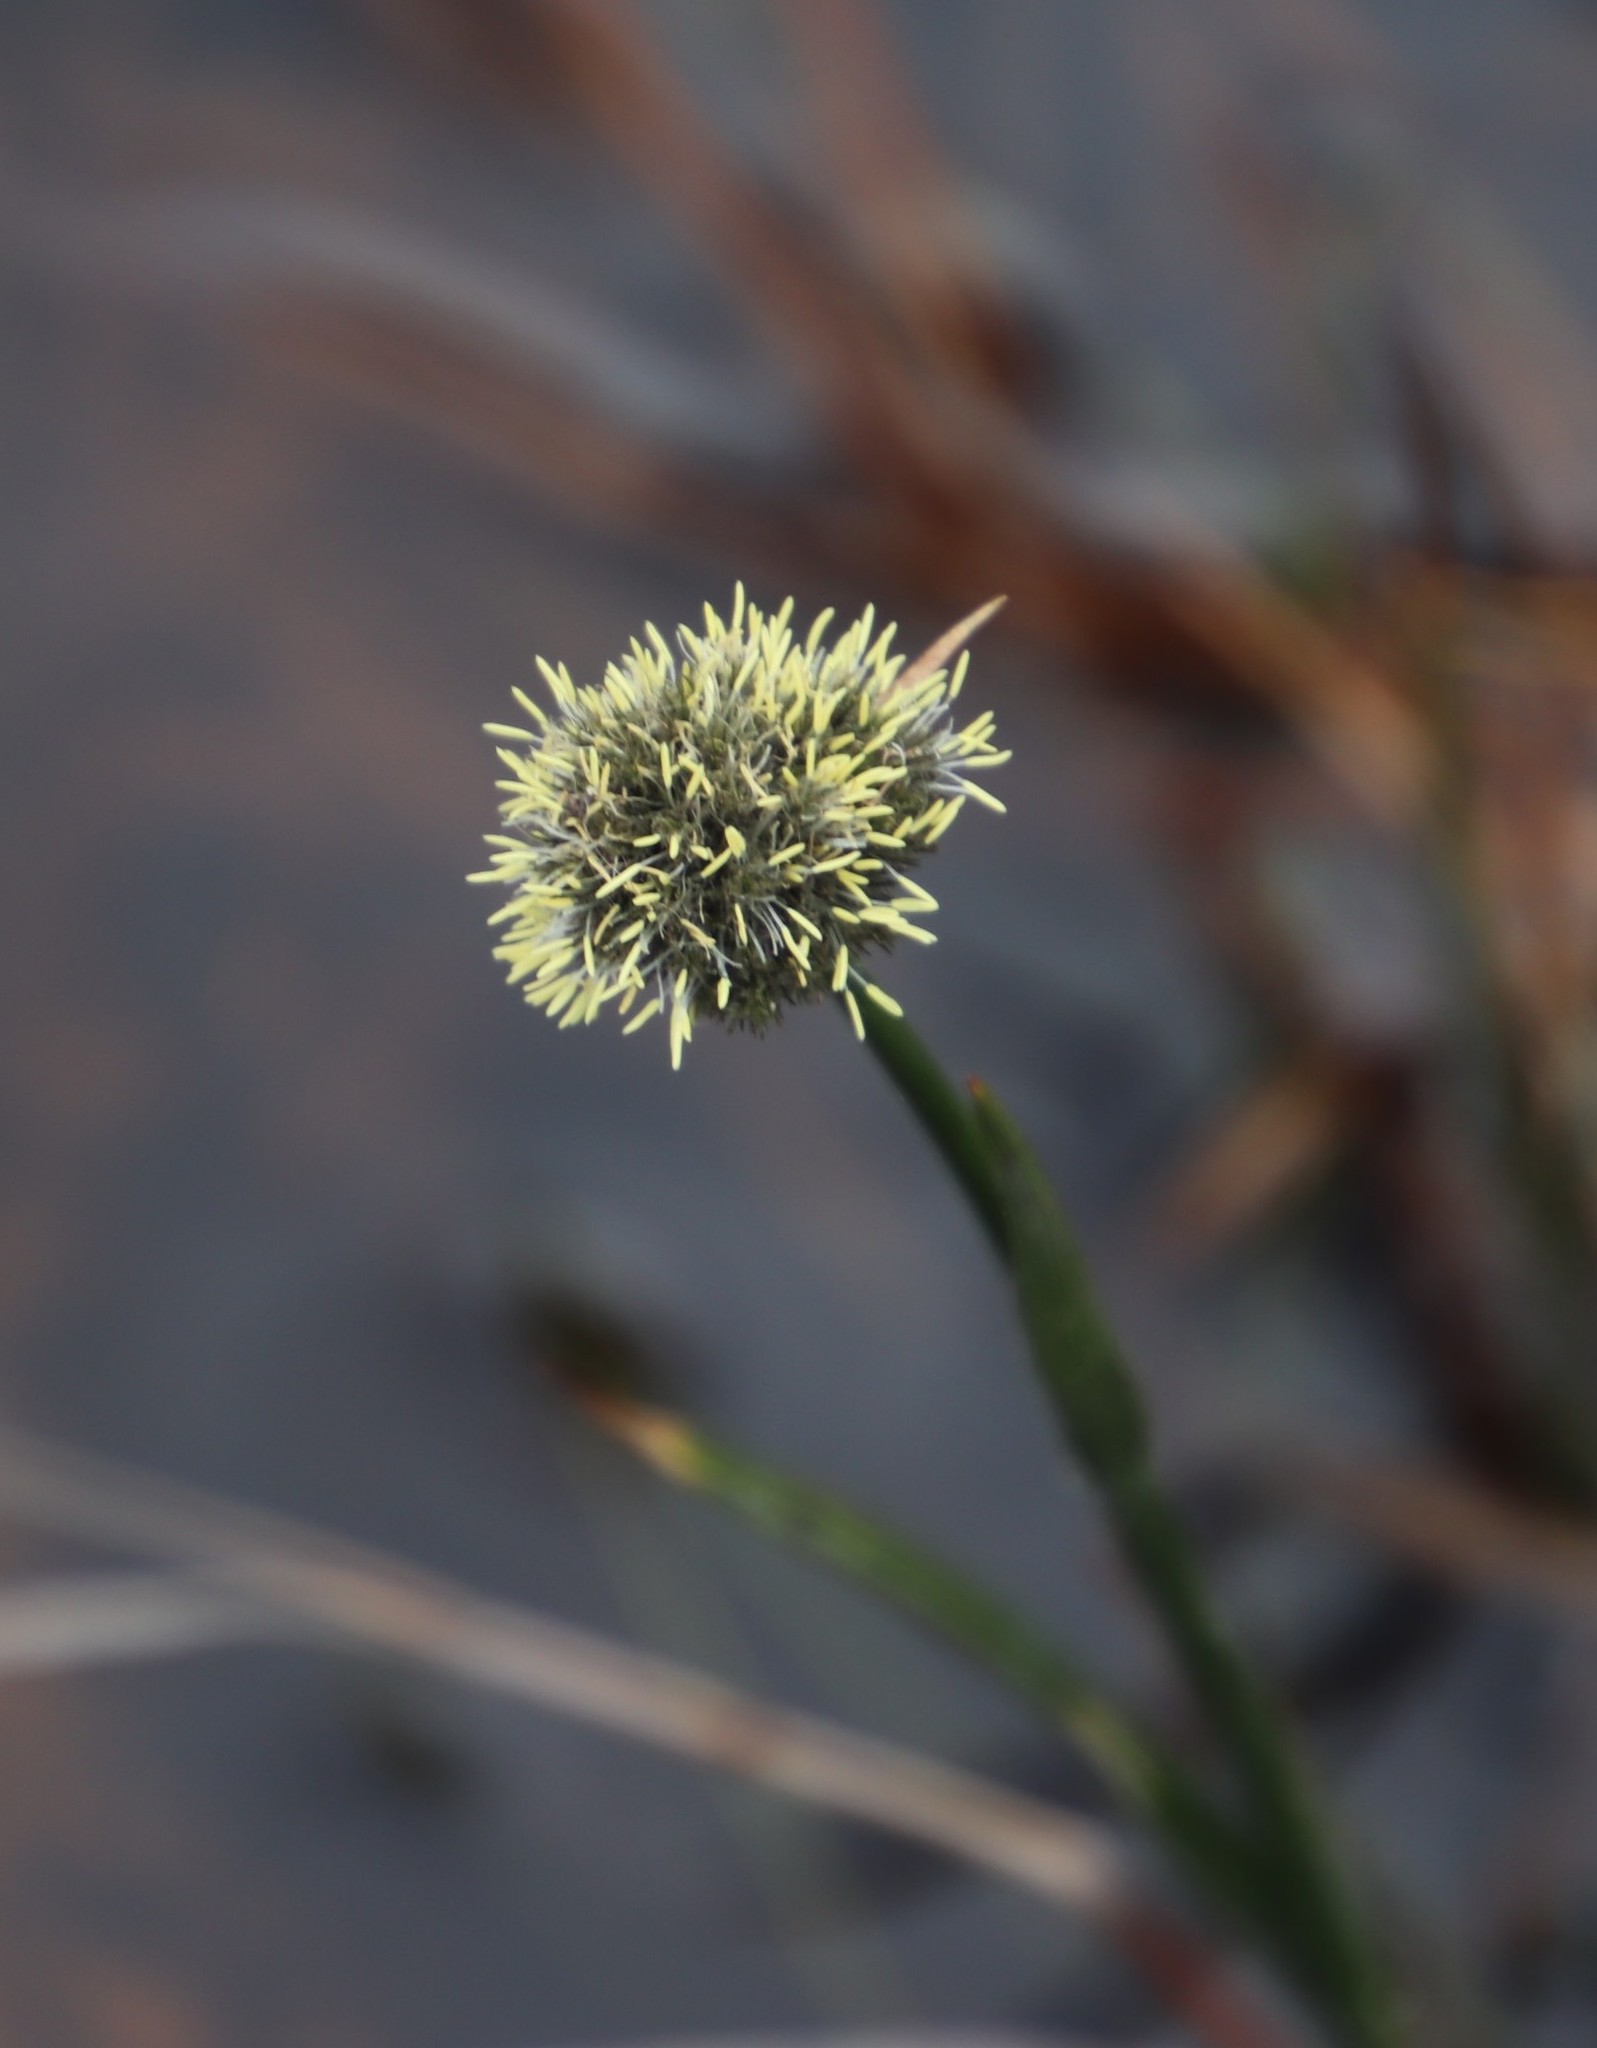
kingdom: Plantae
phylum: Tracheophyta
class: Liliopsida
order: Poales
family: Cyperaceae
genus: Fuirena
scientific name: Fuirena hirsuta
